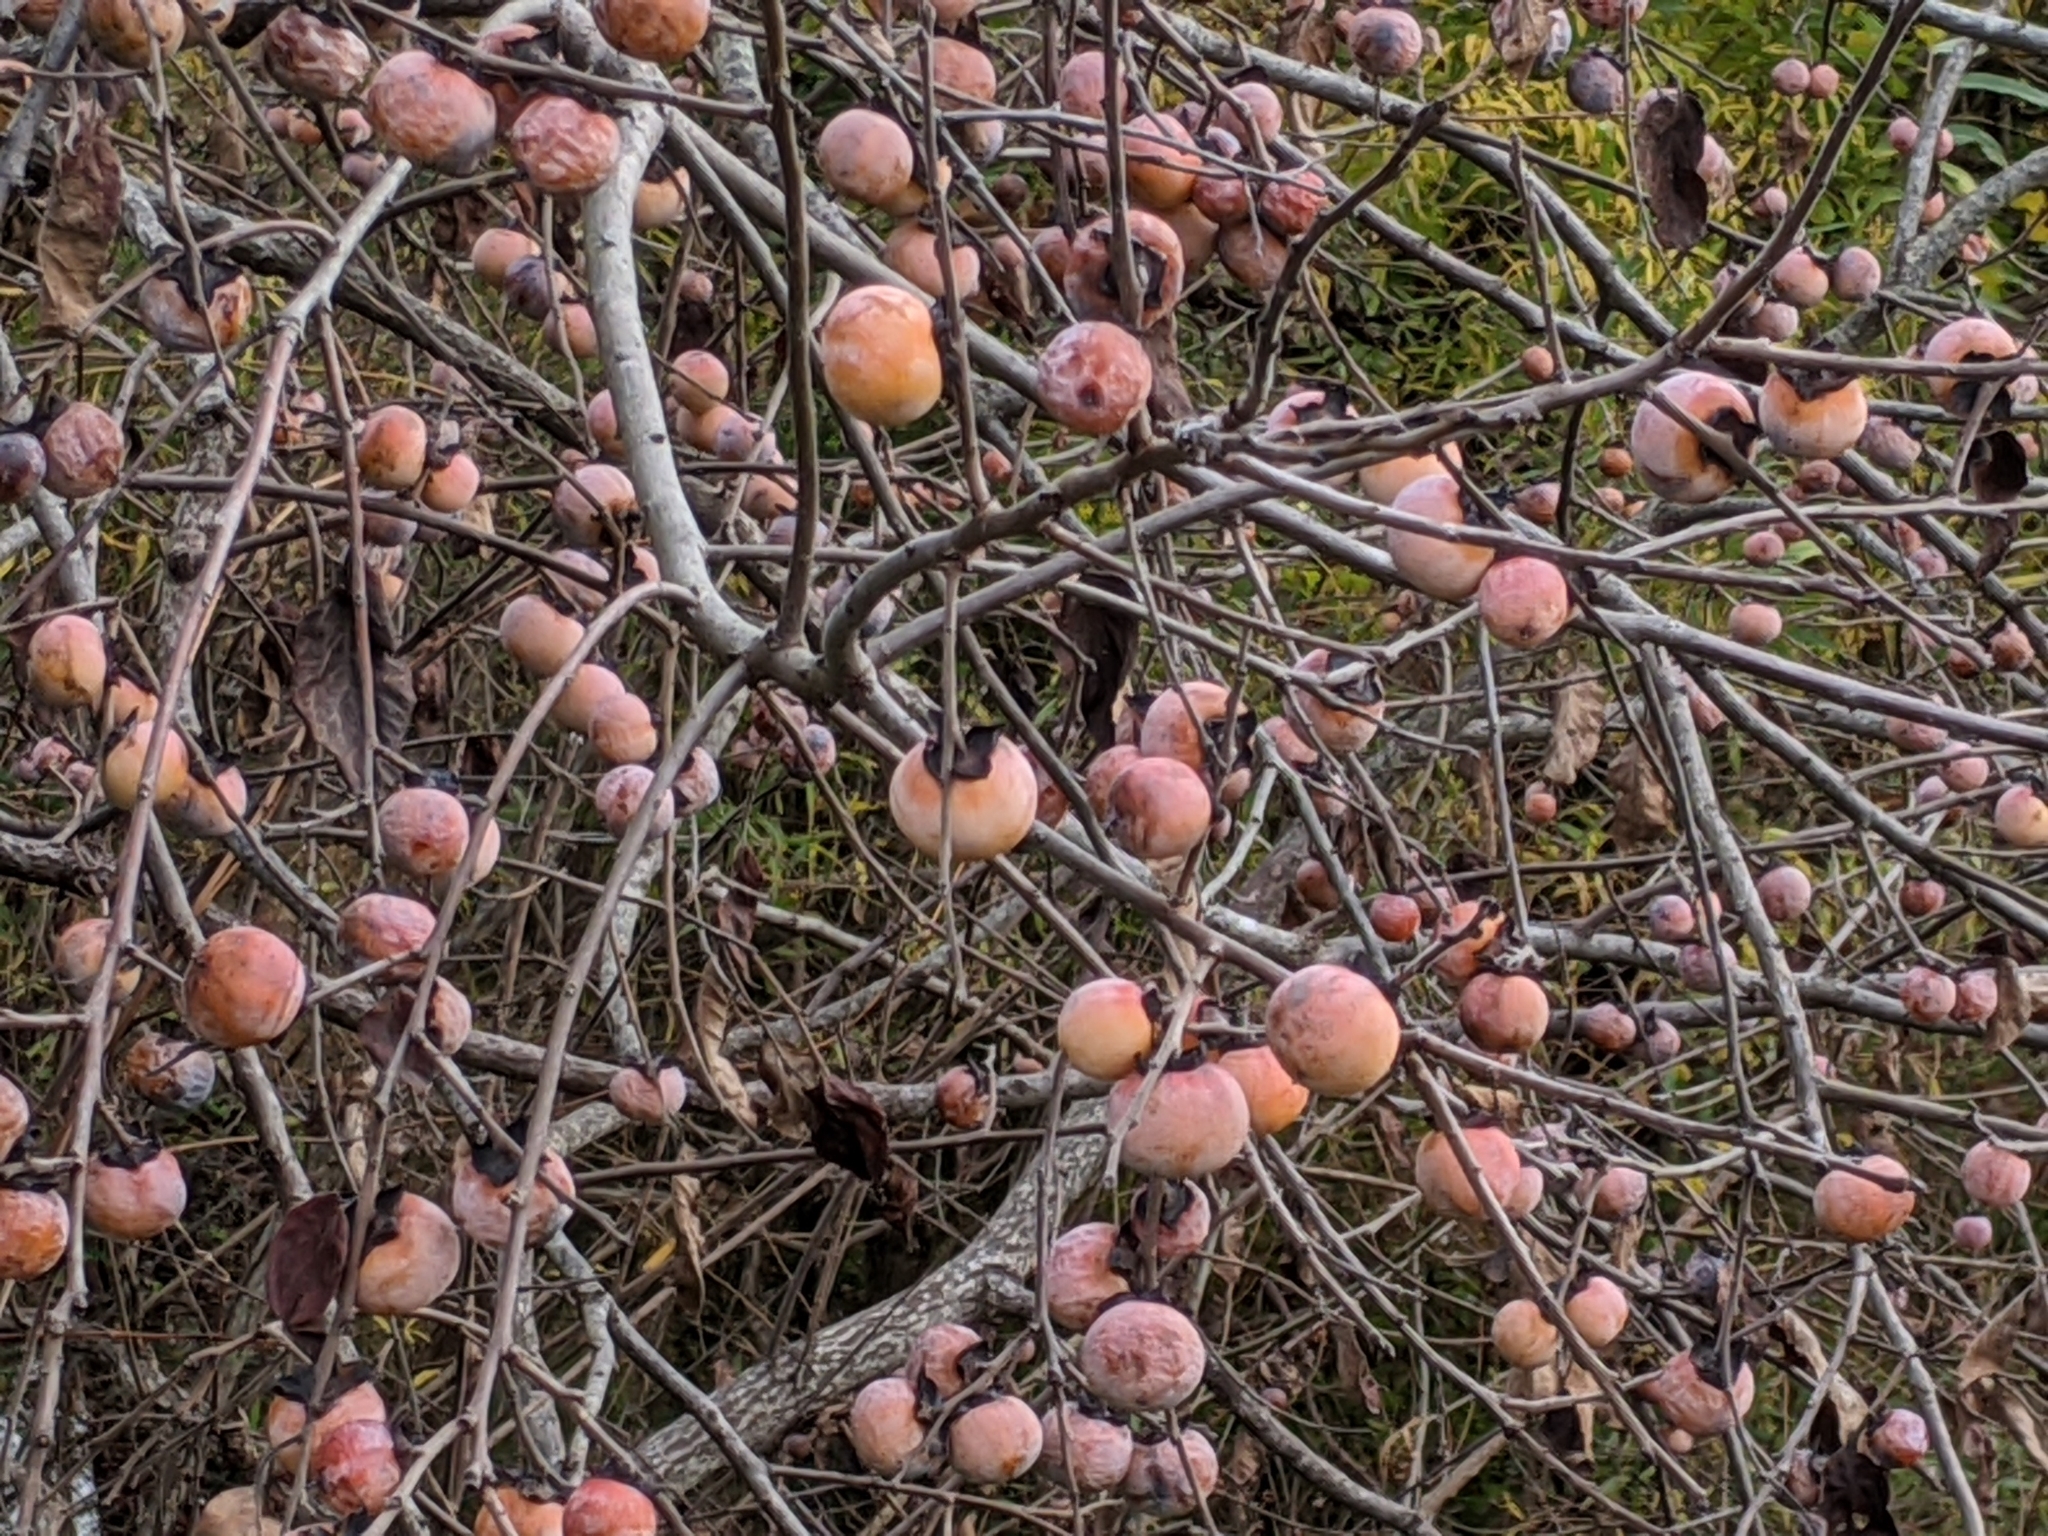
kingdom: Plantae
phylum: Tracheophyta
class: Magnoliopsida
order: Ericales
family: Ebenaceae
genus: Diospyros
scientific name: Diospyros virginiana
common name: Persimmon
